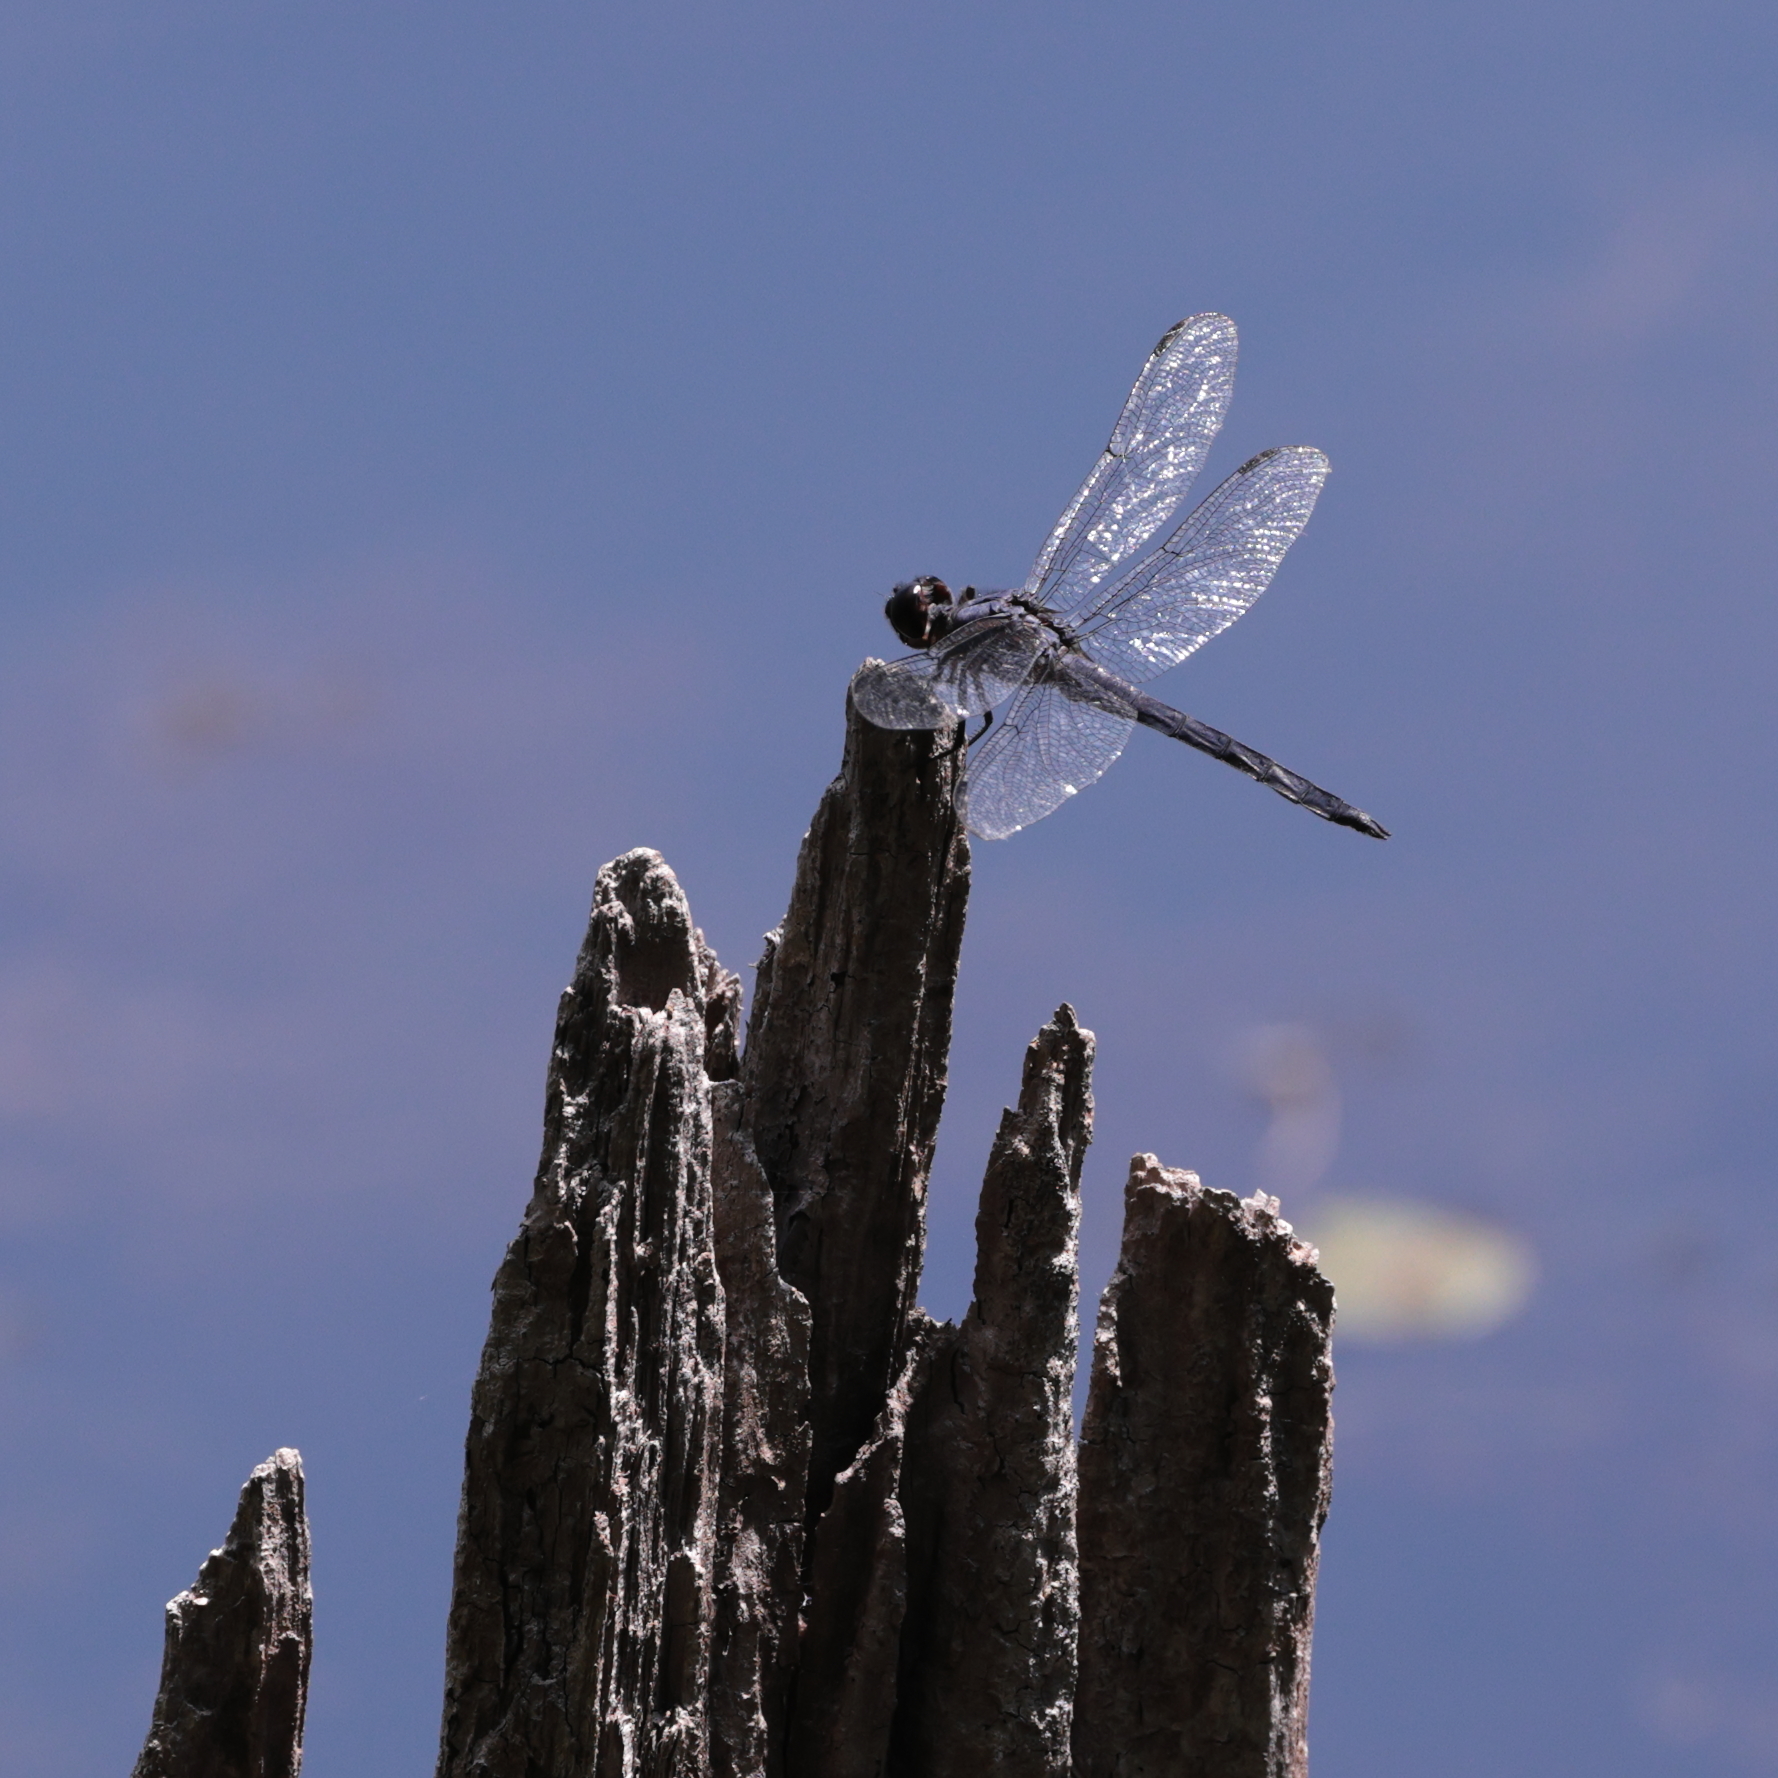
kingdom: Animalia
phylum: Arthropoda
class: Insecta
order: Odonata
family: Libellulidae
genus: Libellula
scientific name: Libellula incesta
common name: Slaty skimmer
